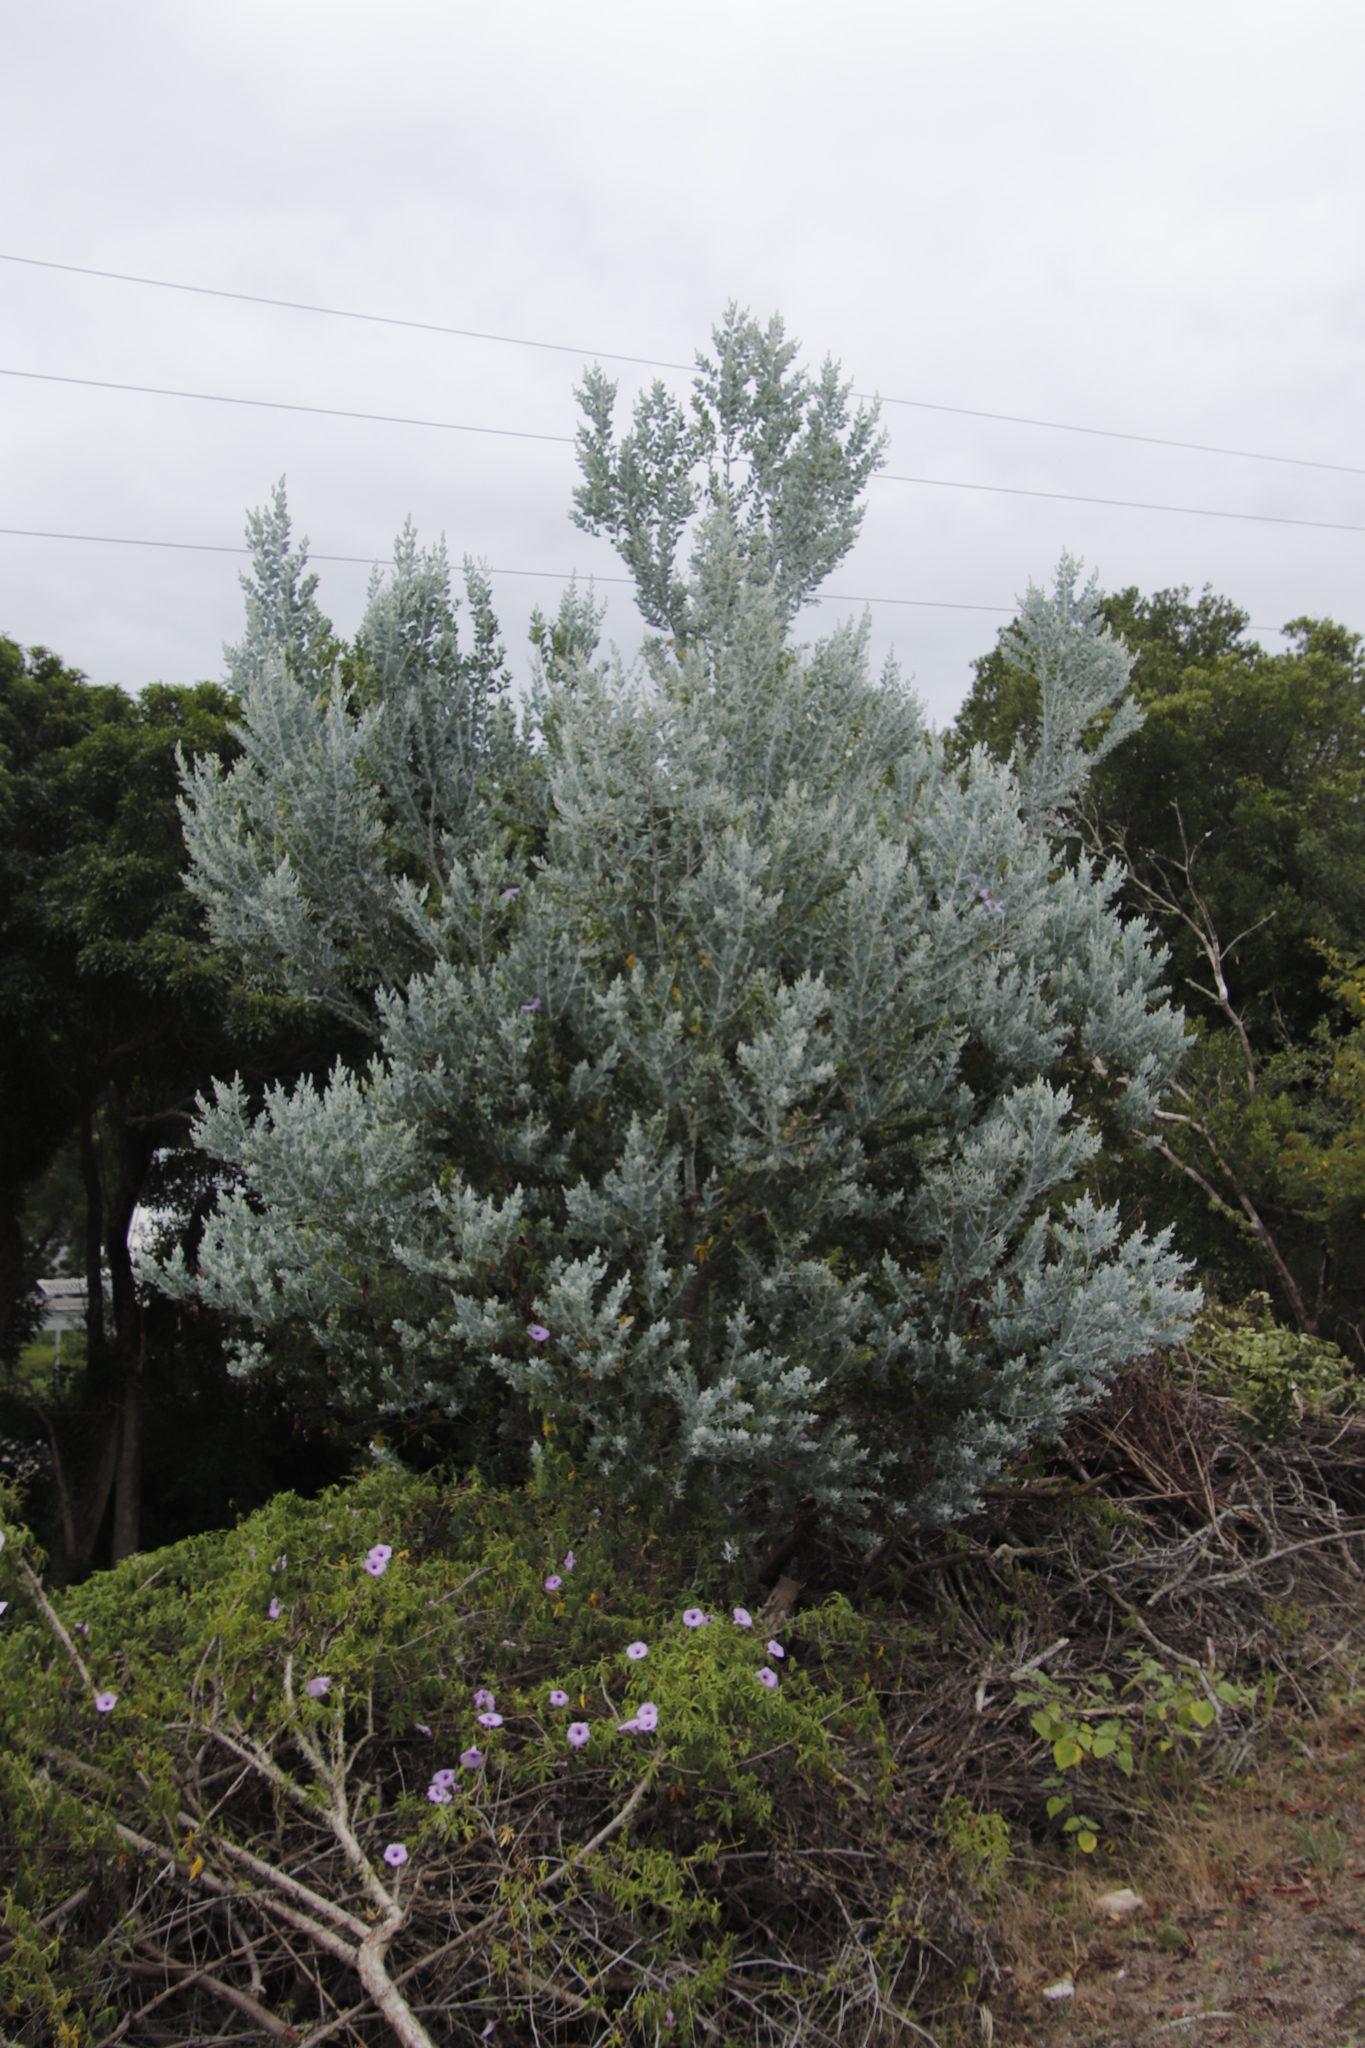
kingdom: Plantae
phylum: Tracheophyta
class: Magnoliopsida
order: Fabales
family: Fabaceae
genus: Acacia
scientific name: Acacia podalyriifolia
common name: Pearl wattle
